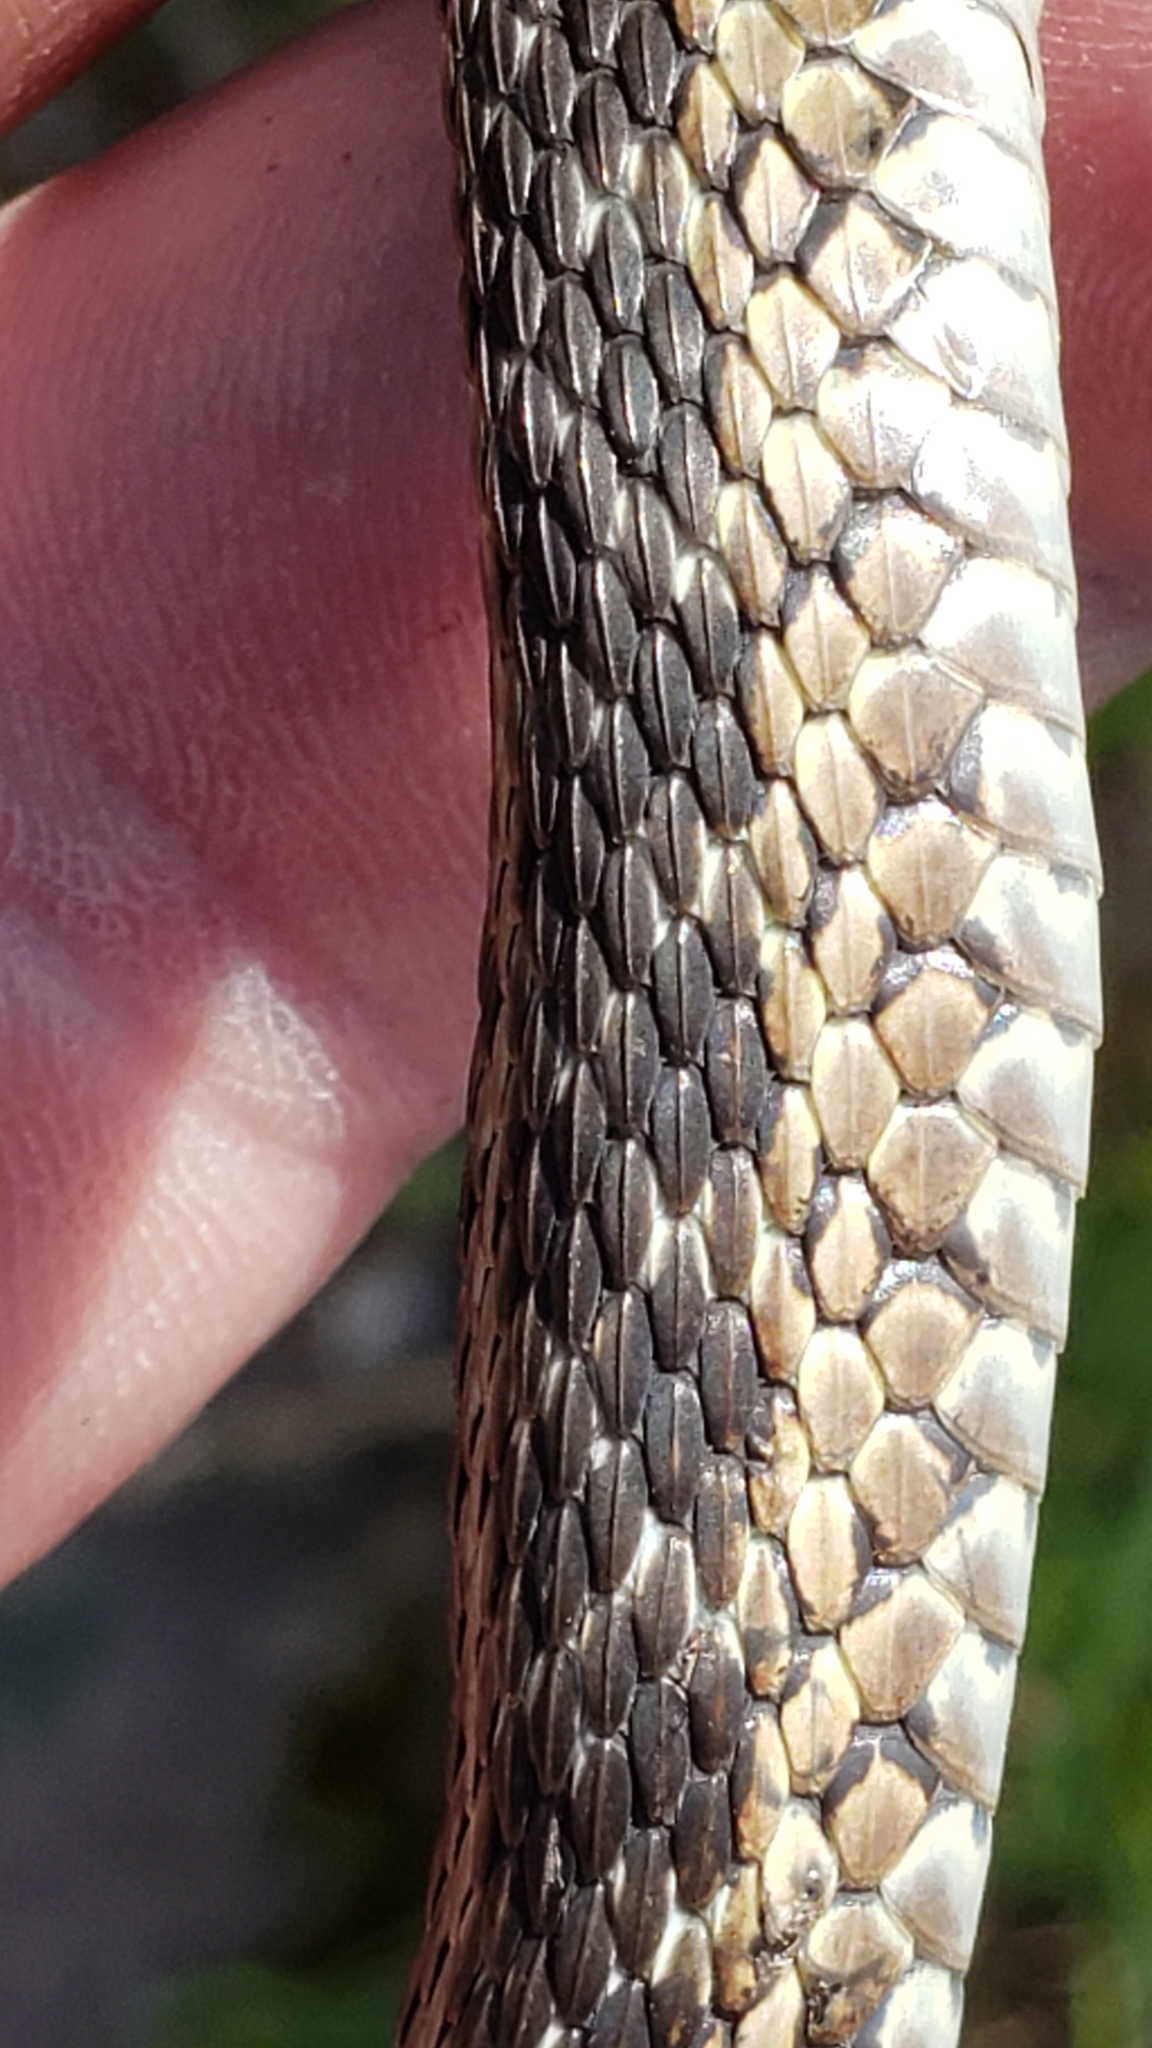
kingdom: Animalia
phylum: Chordata
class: Squamata
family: Colubridae
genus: Thamnophis
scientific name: Thamnophis sirtalis
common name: Common garter snake
